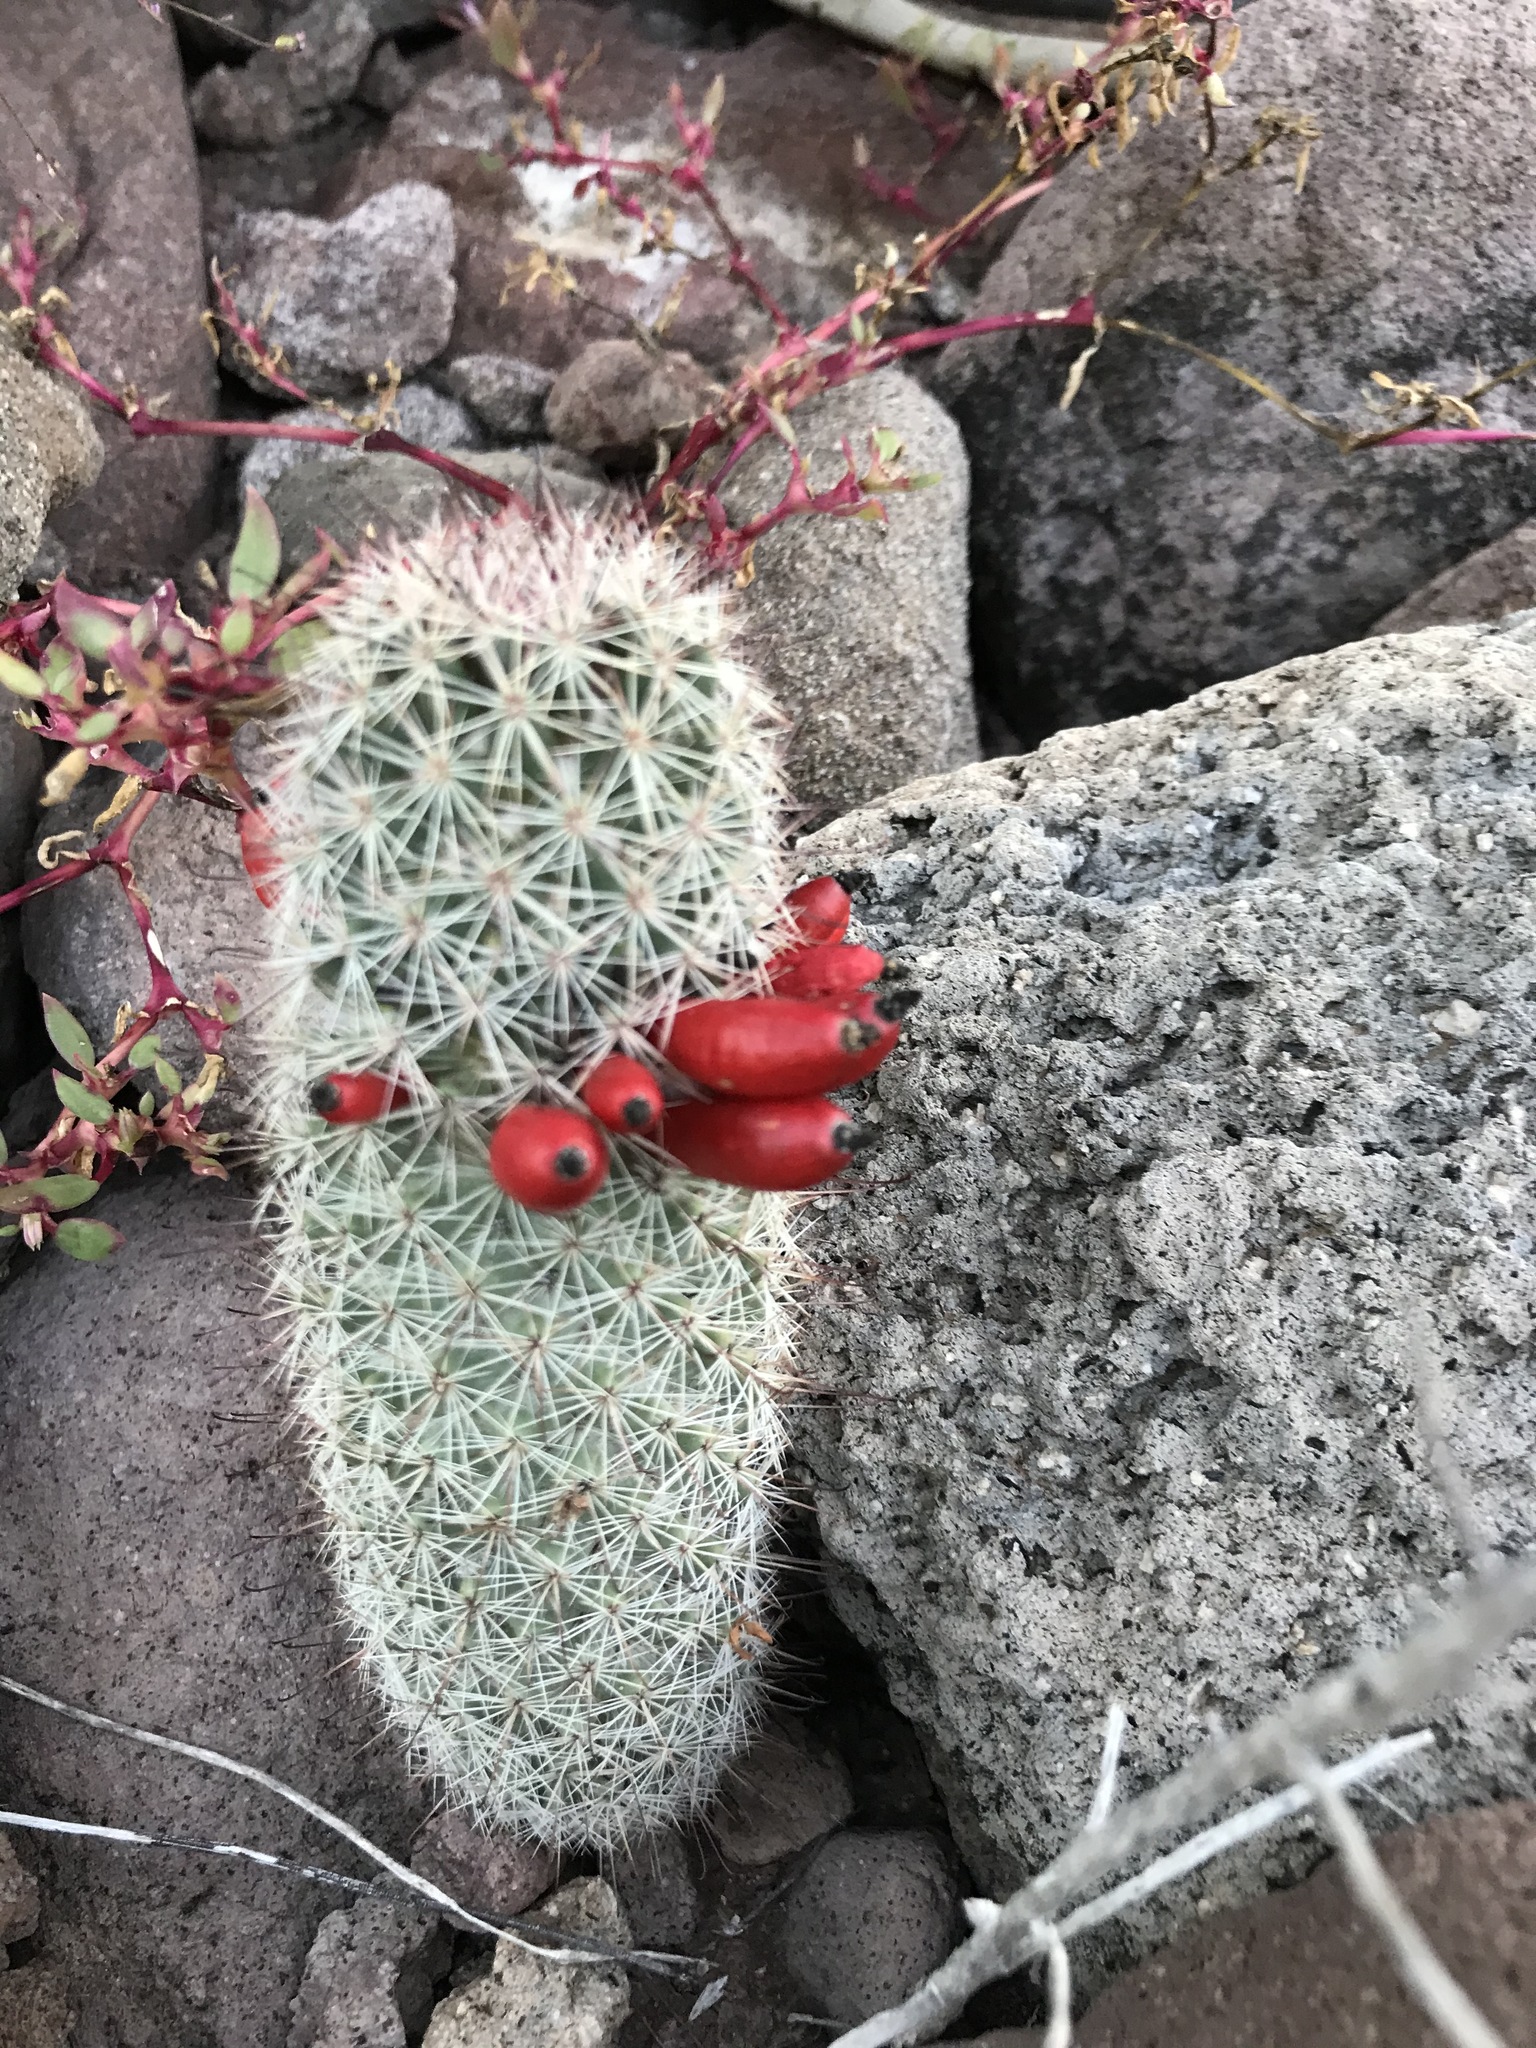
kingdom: Plantae
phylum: Tracheophyta
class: Magnoliopsida
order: Caryophyllales
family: Cactaceae
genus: Cochemiea
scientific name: Cochemiea dioica
